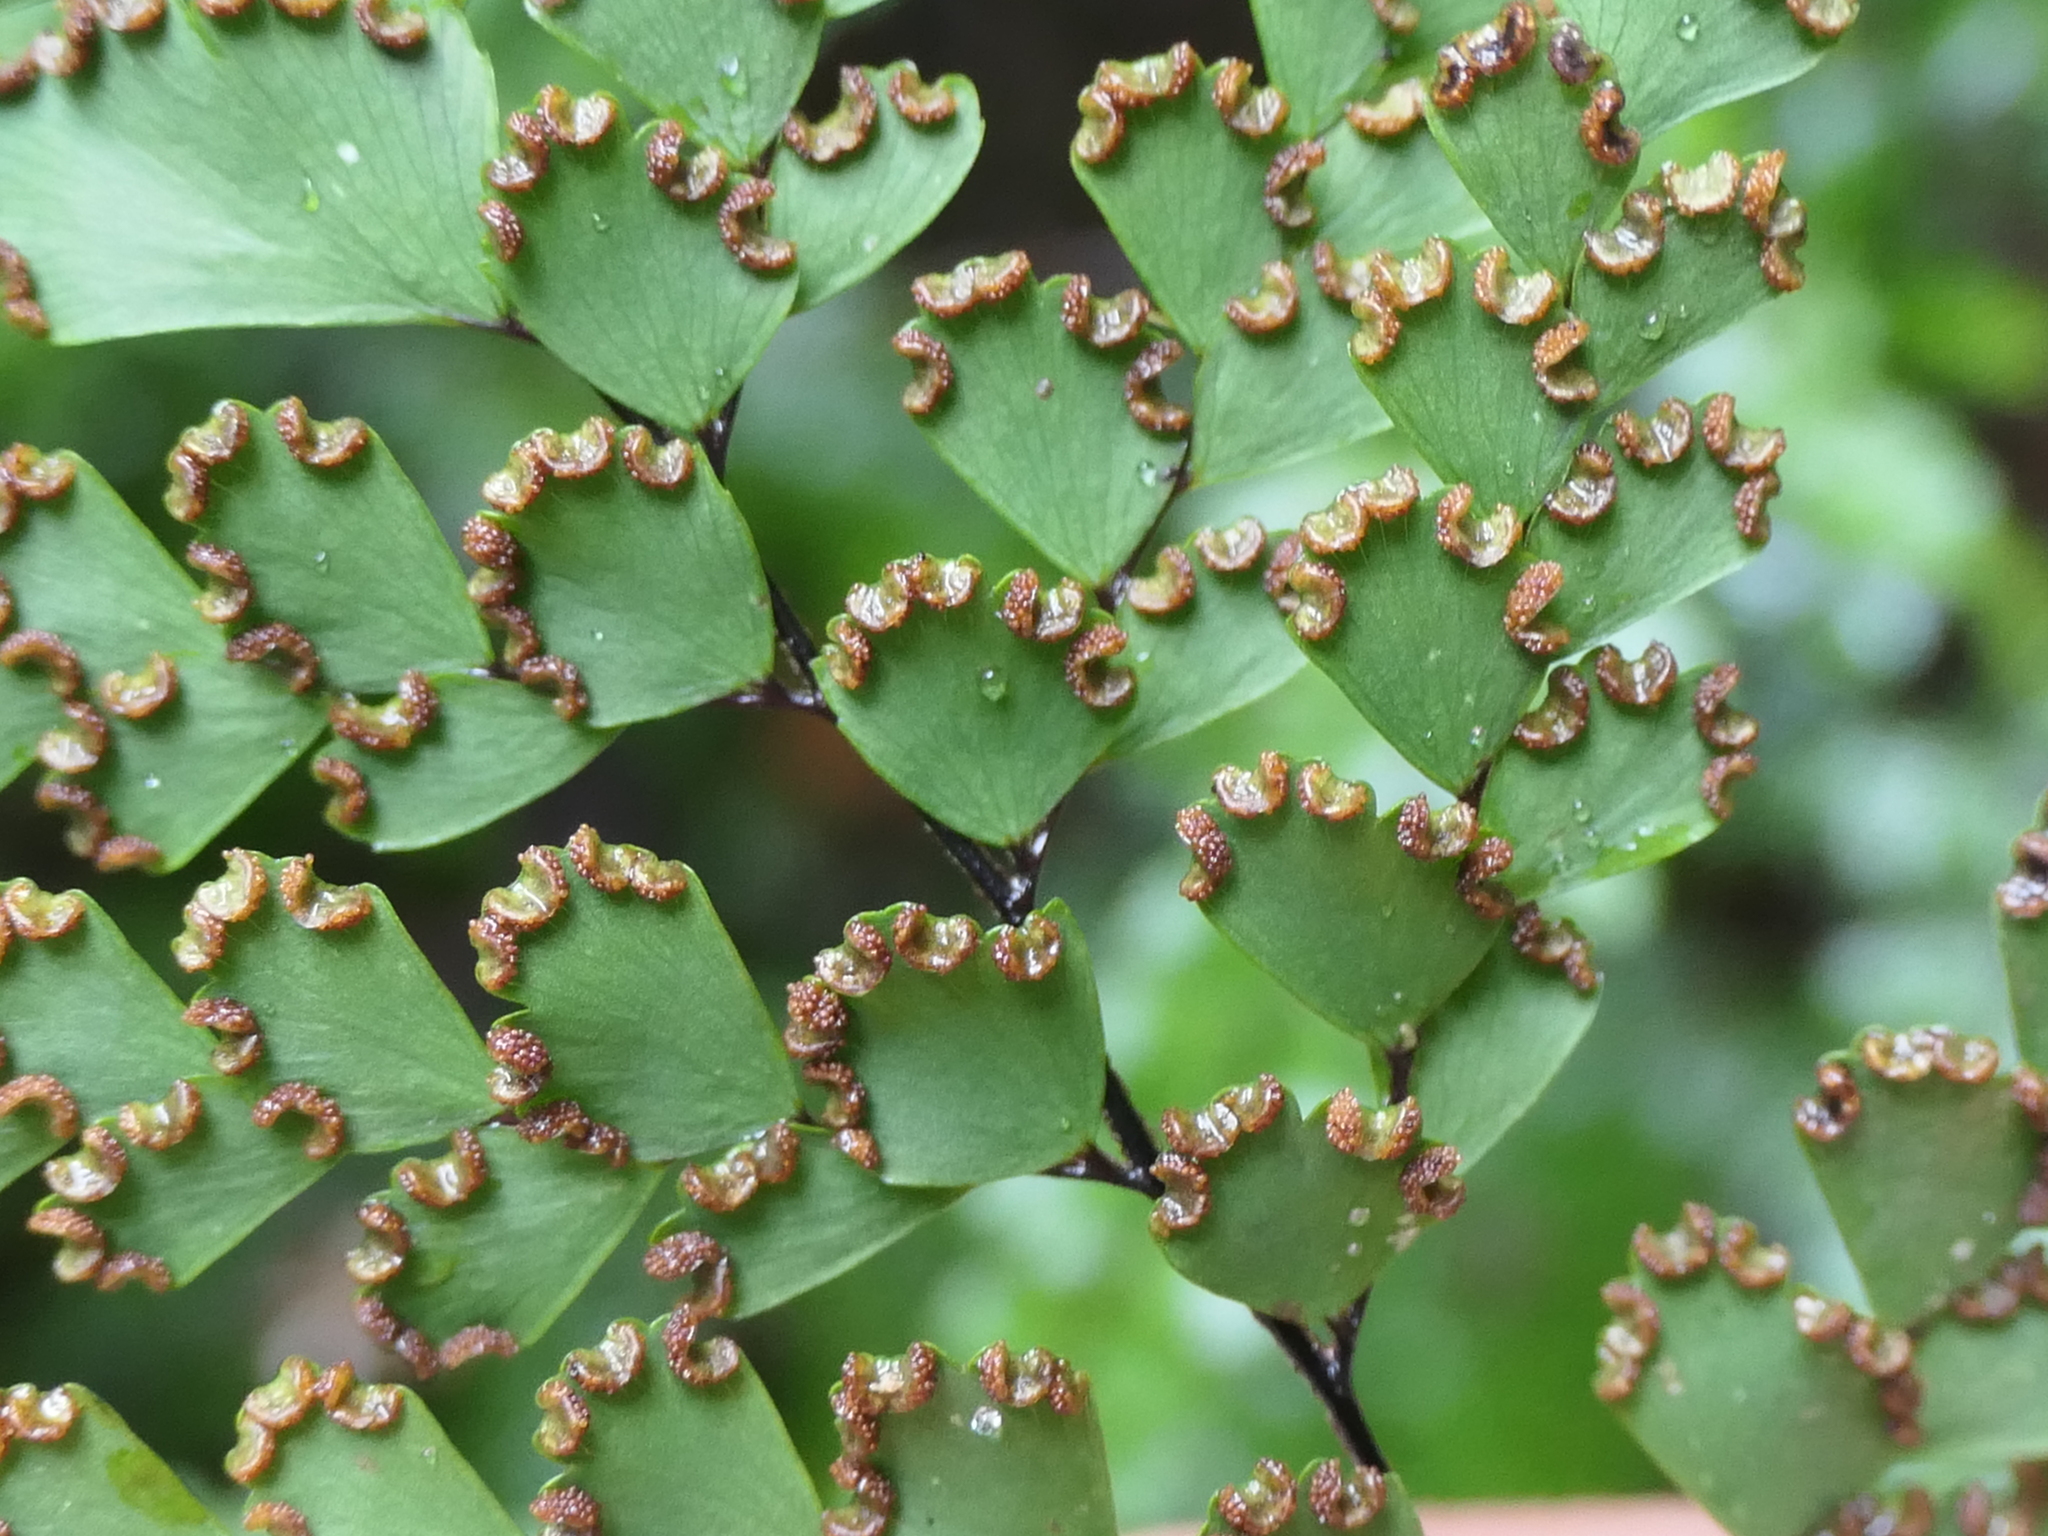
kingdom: Plantae
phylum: Tracheophyta
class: Polypodiopsida
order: Polypodiales
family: Pteridaceae
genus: Adiantum
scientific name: Adiantum formosum
